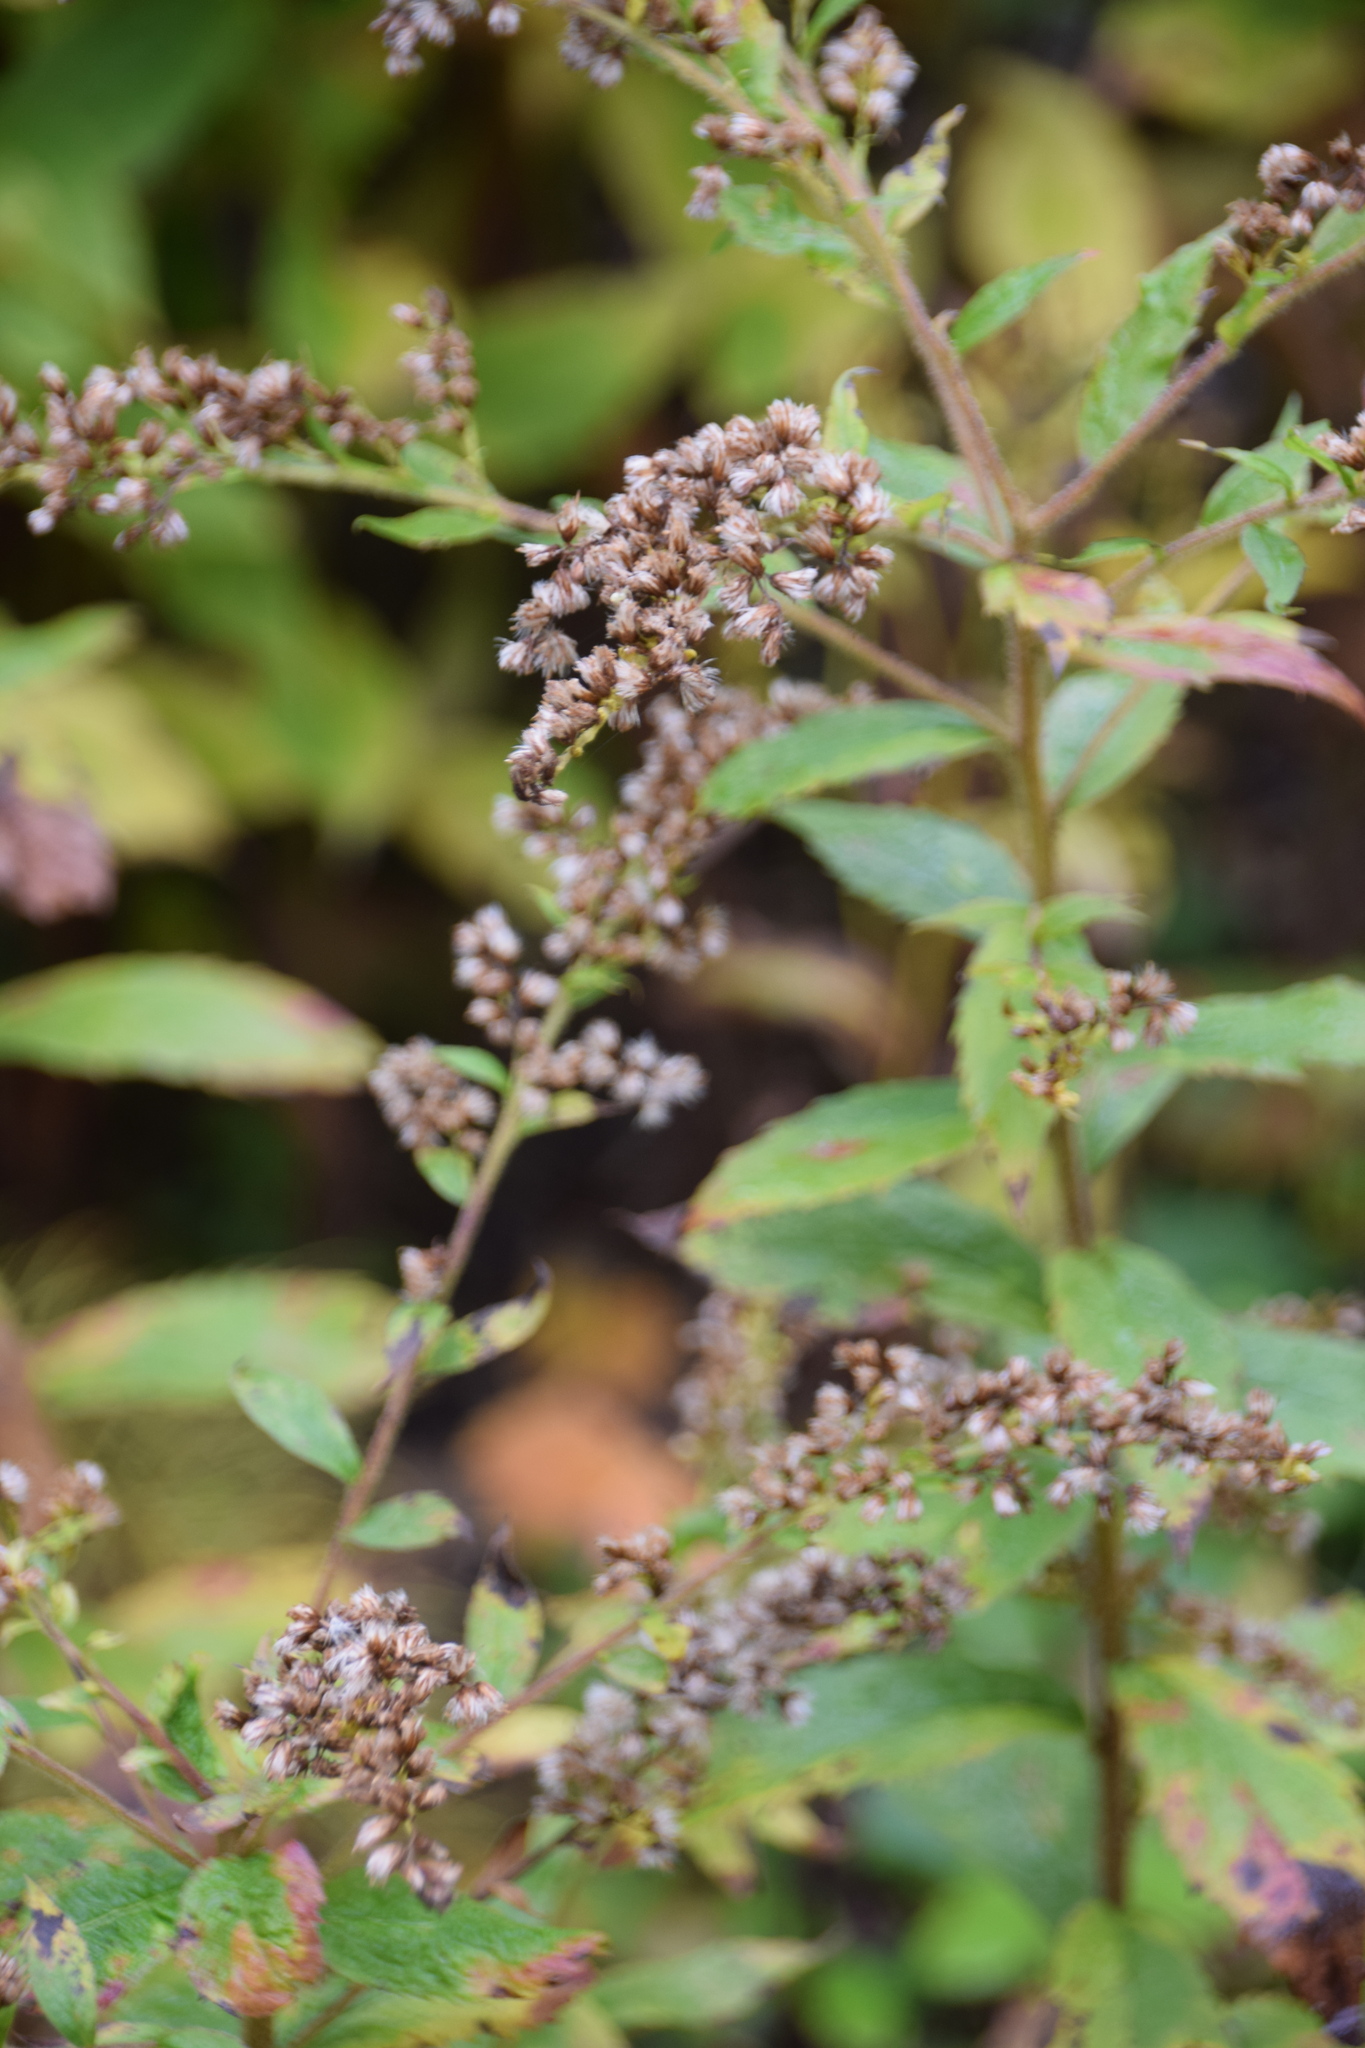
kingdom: Plantae
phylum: Tracheophyta
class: Magnoliopsida
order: Asterales
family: Asteraceae
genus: Solidago
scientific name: Solidago rugosa
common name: Rough-stemmed goldenrod
